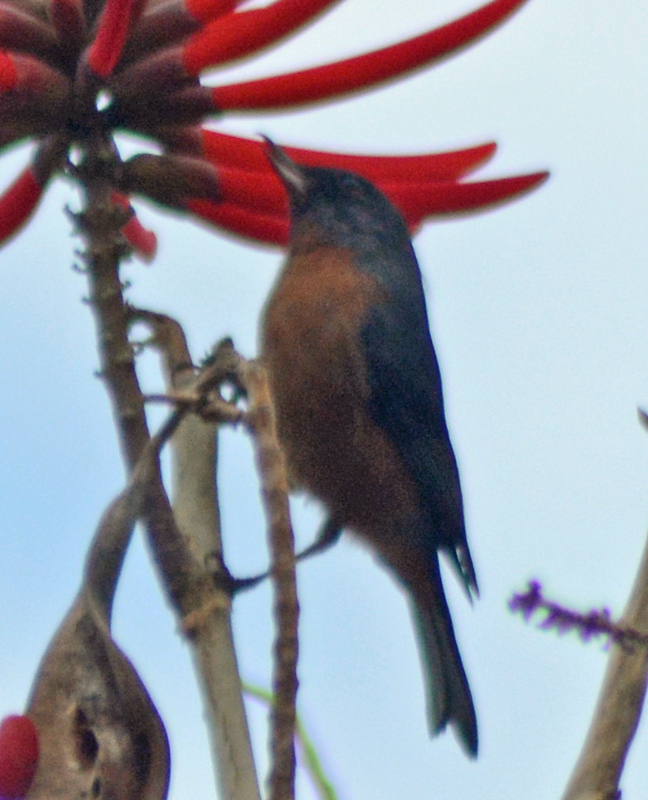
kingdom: Animalia
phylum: Chordata
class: Aves
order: Passeriformes
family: Thraupidae
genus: Diglossa
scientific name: Diglossa baritula
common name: Cinnamon-bellied flowerpiercer
